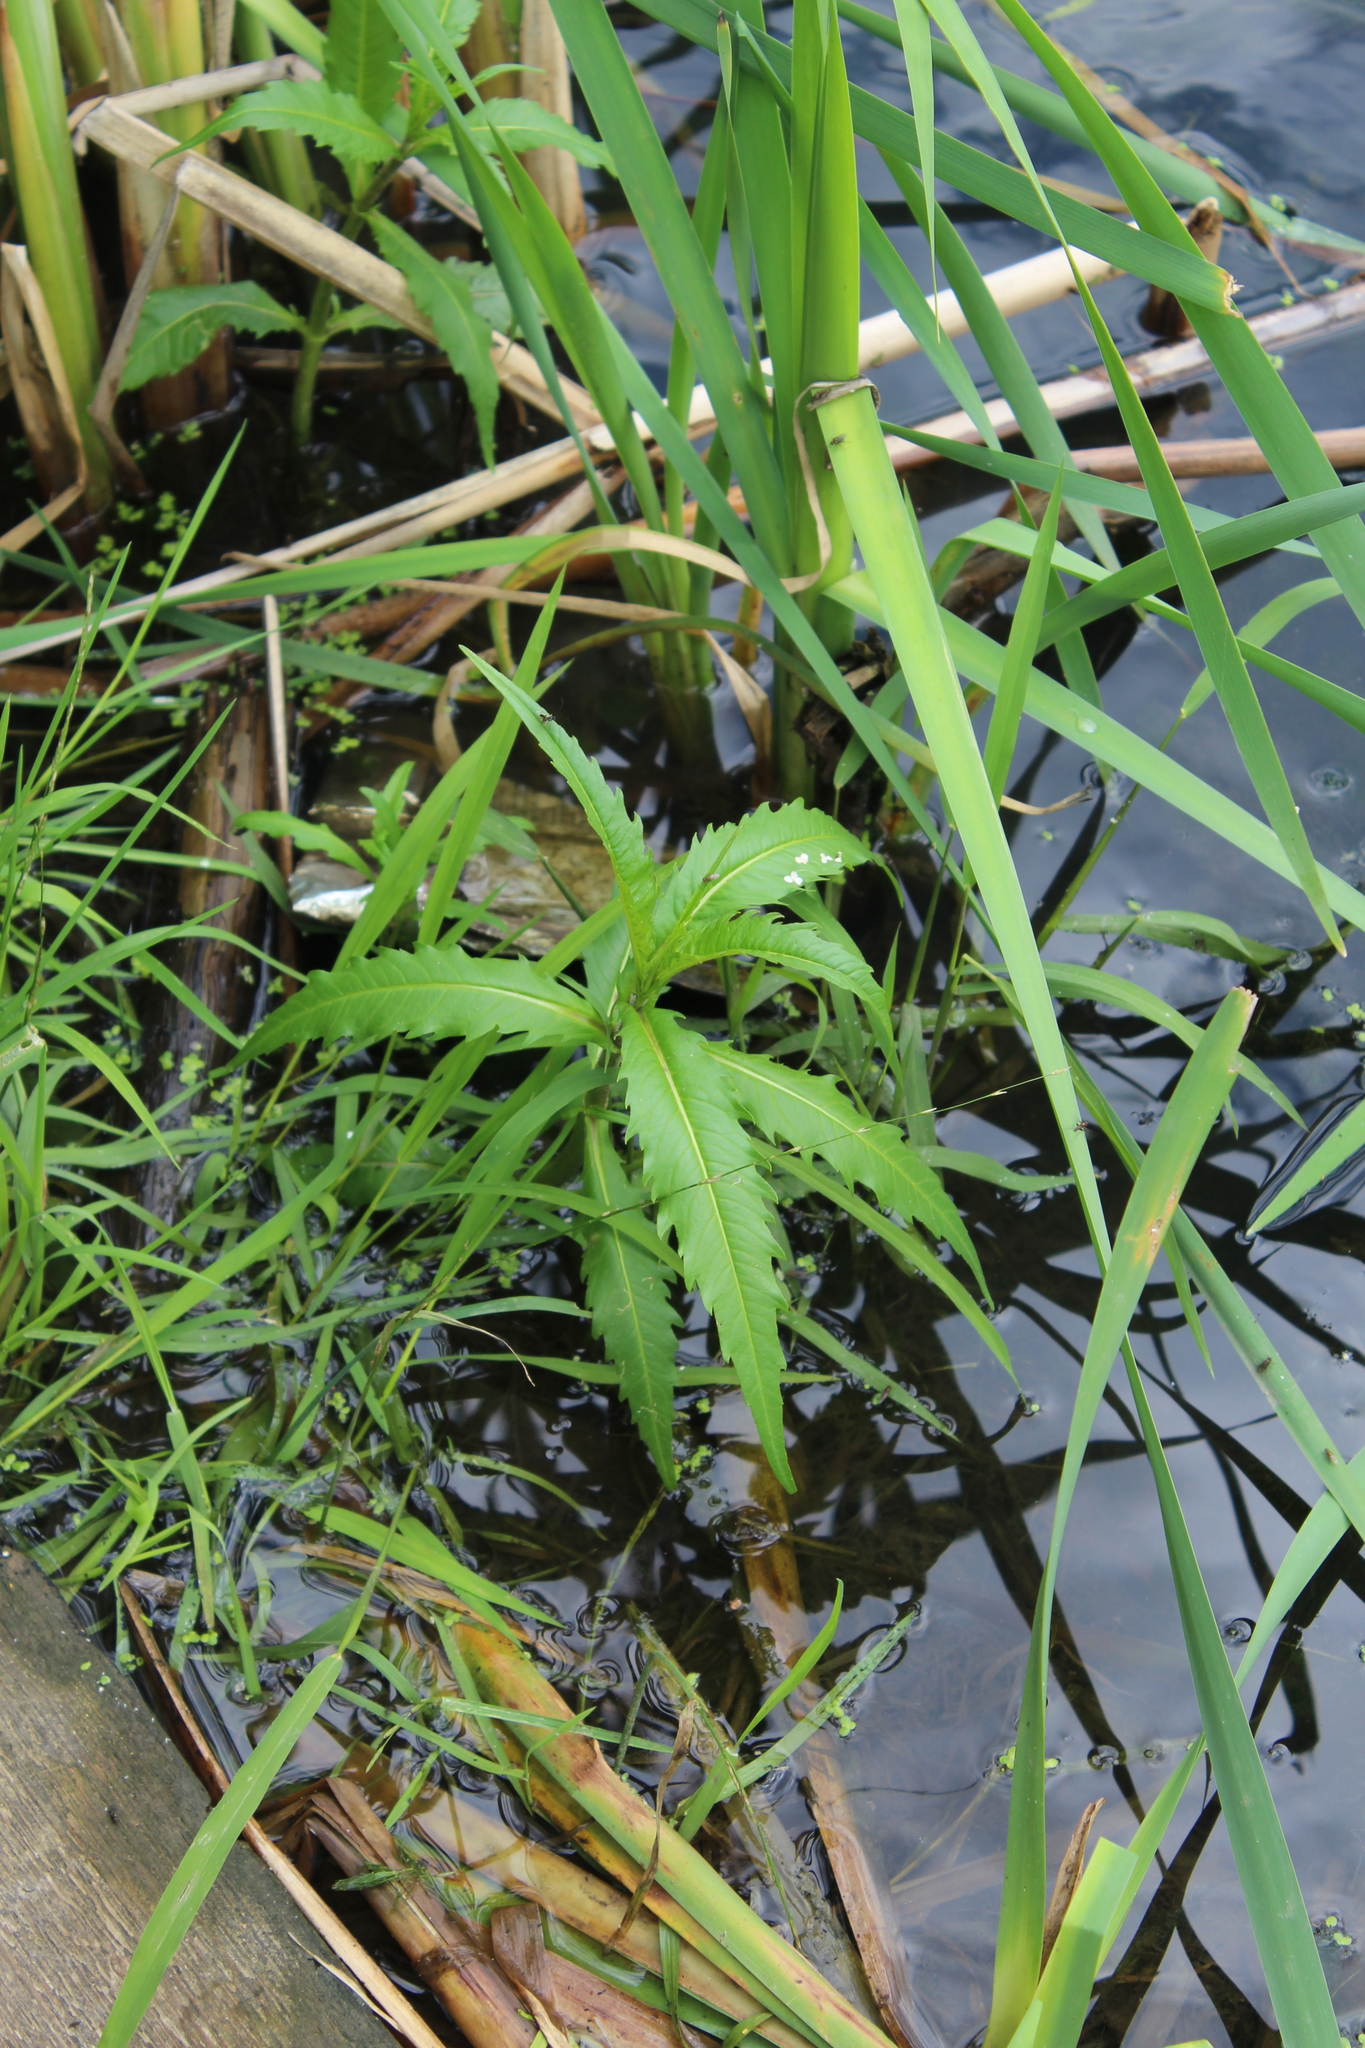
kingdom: Plantae
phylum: Tracheophyta
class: Magnoliopsida
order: Asterales
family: Asteraceae
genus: Bidens
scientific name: Bidens cernua
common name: Nodding bur-marigold
